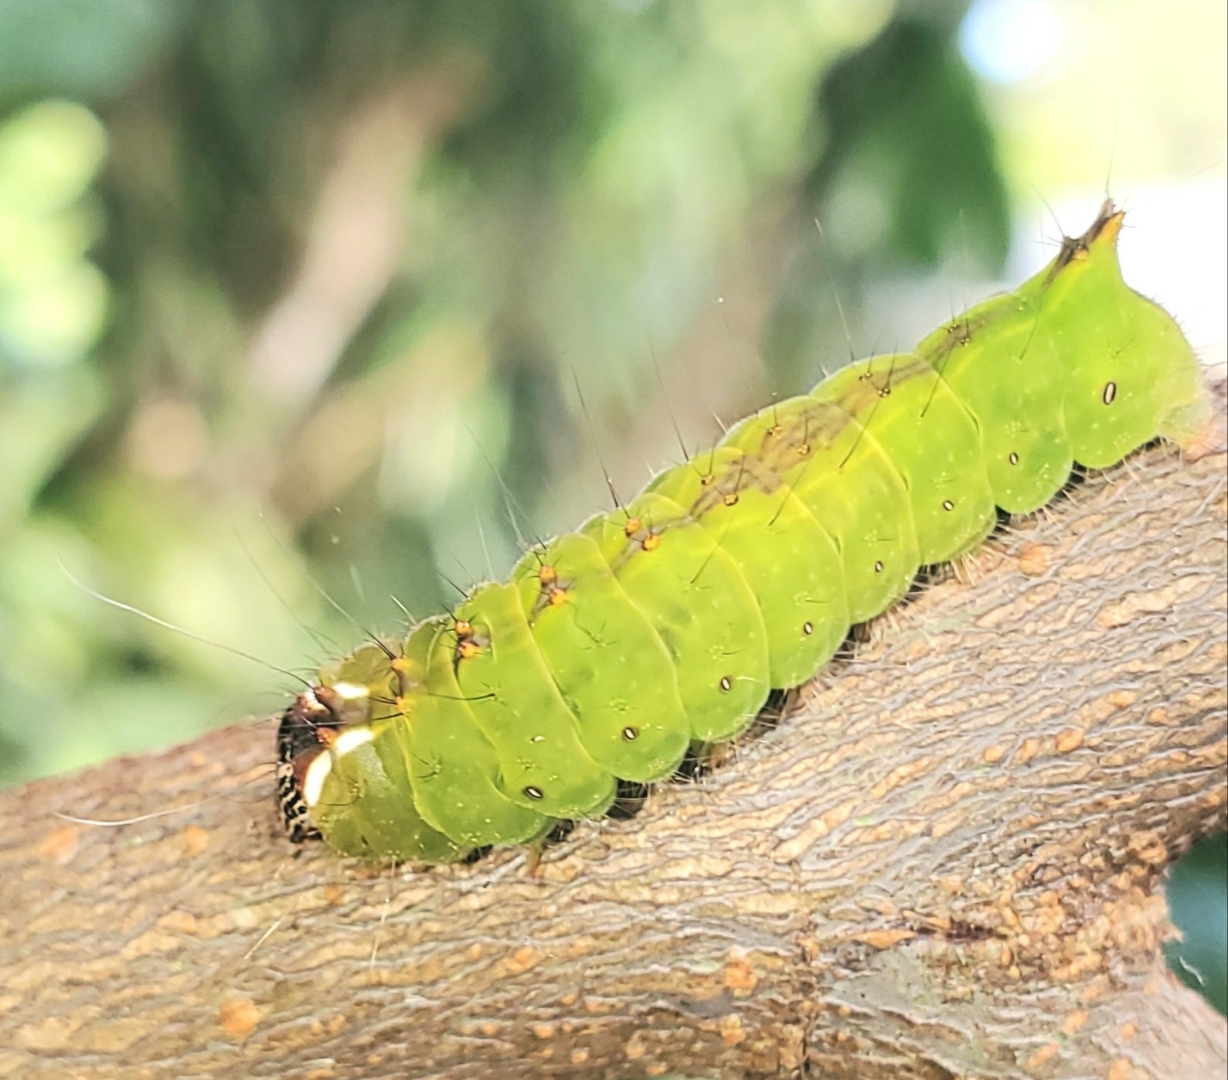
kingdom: Animalia
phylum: Arthropoda
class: Insecta
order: Lepidoptera
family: Noctuidae
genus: Acronicta
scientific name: Acronicta clarescens
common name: Clear dagger
